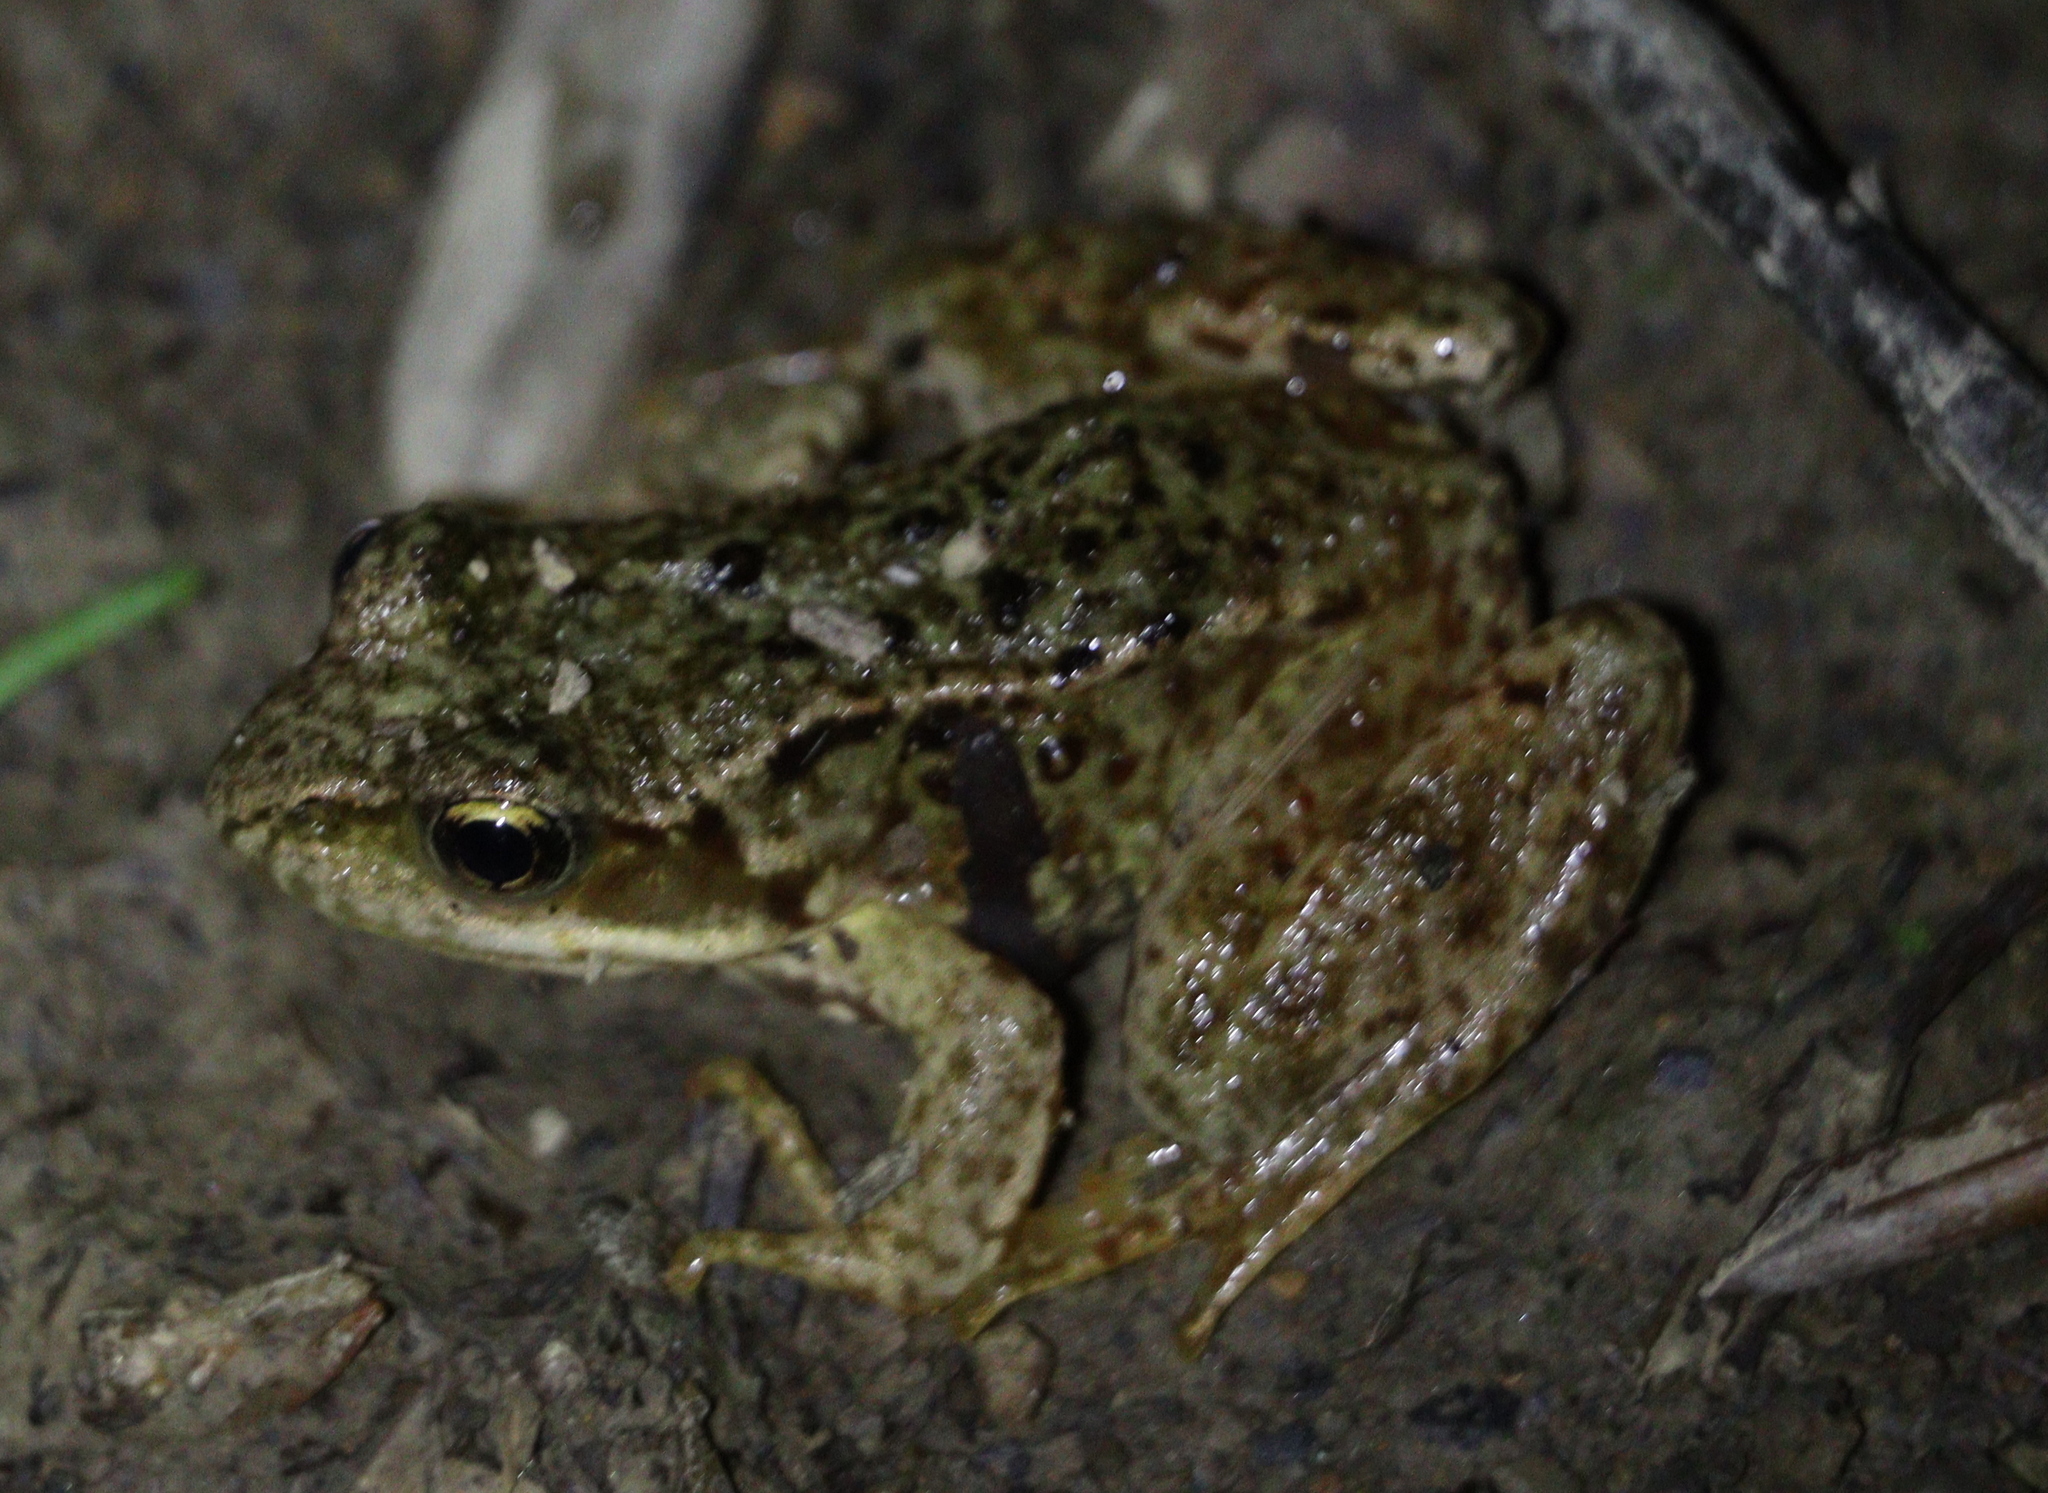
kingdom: Animalia
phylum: Chordata
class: Amphibia
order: Anura
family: Ranidae
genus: Rana
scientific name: Rana temporaria
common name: Common frog
